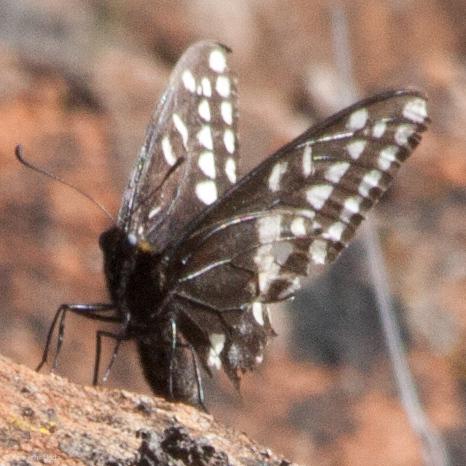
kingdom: Animalia
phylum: Arthropoda
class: Insecta
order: Lepidoptera
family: Papilionidae
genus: Papilio
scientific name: Papilio indra
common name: Cliff swallowtail
